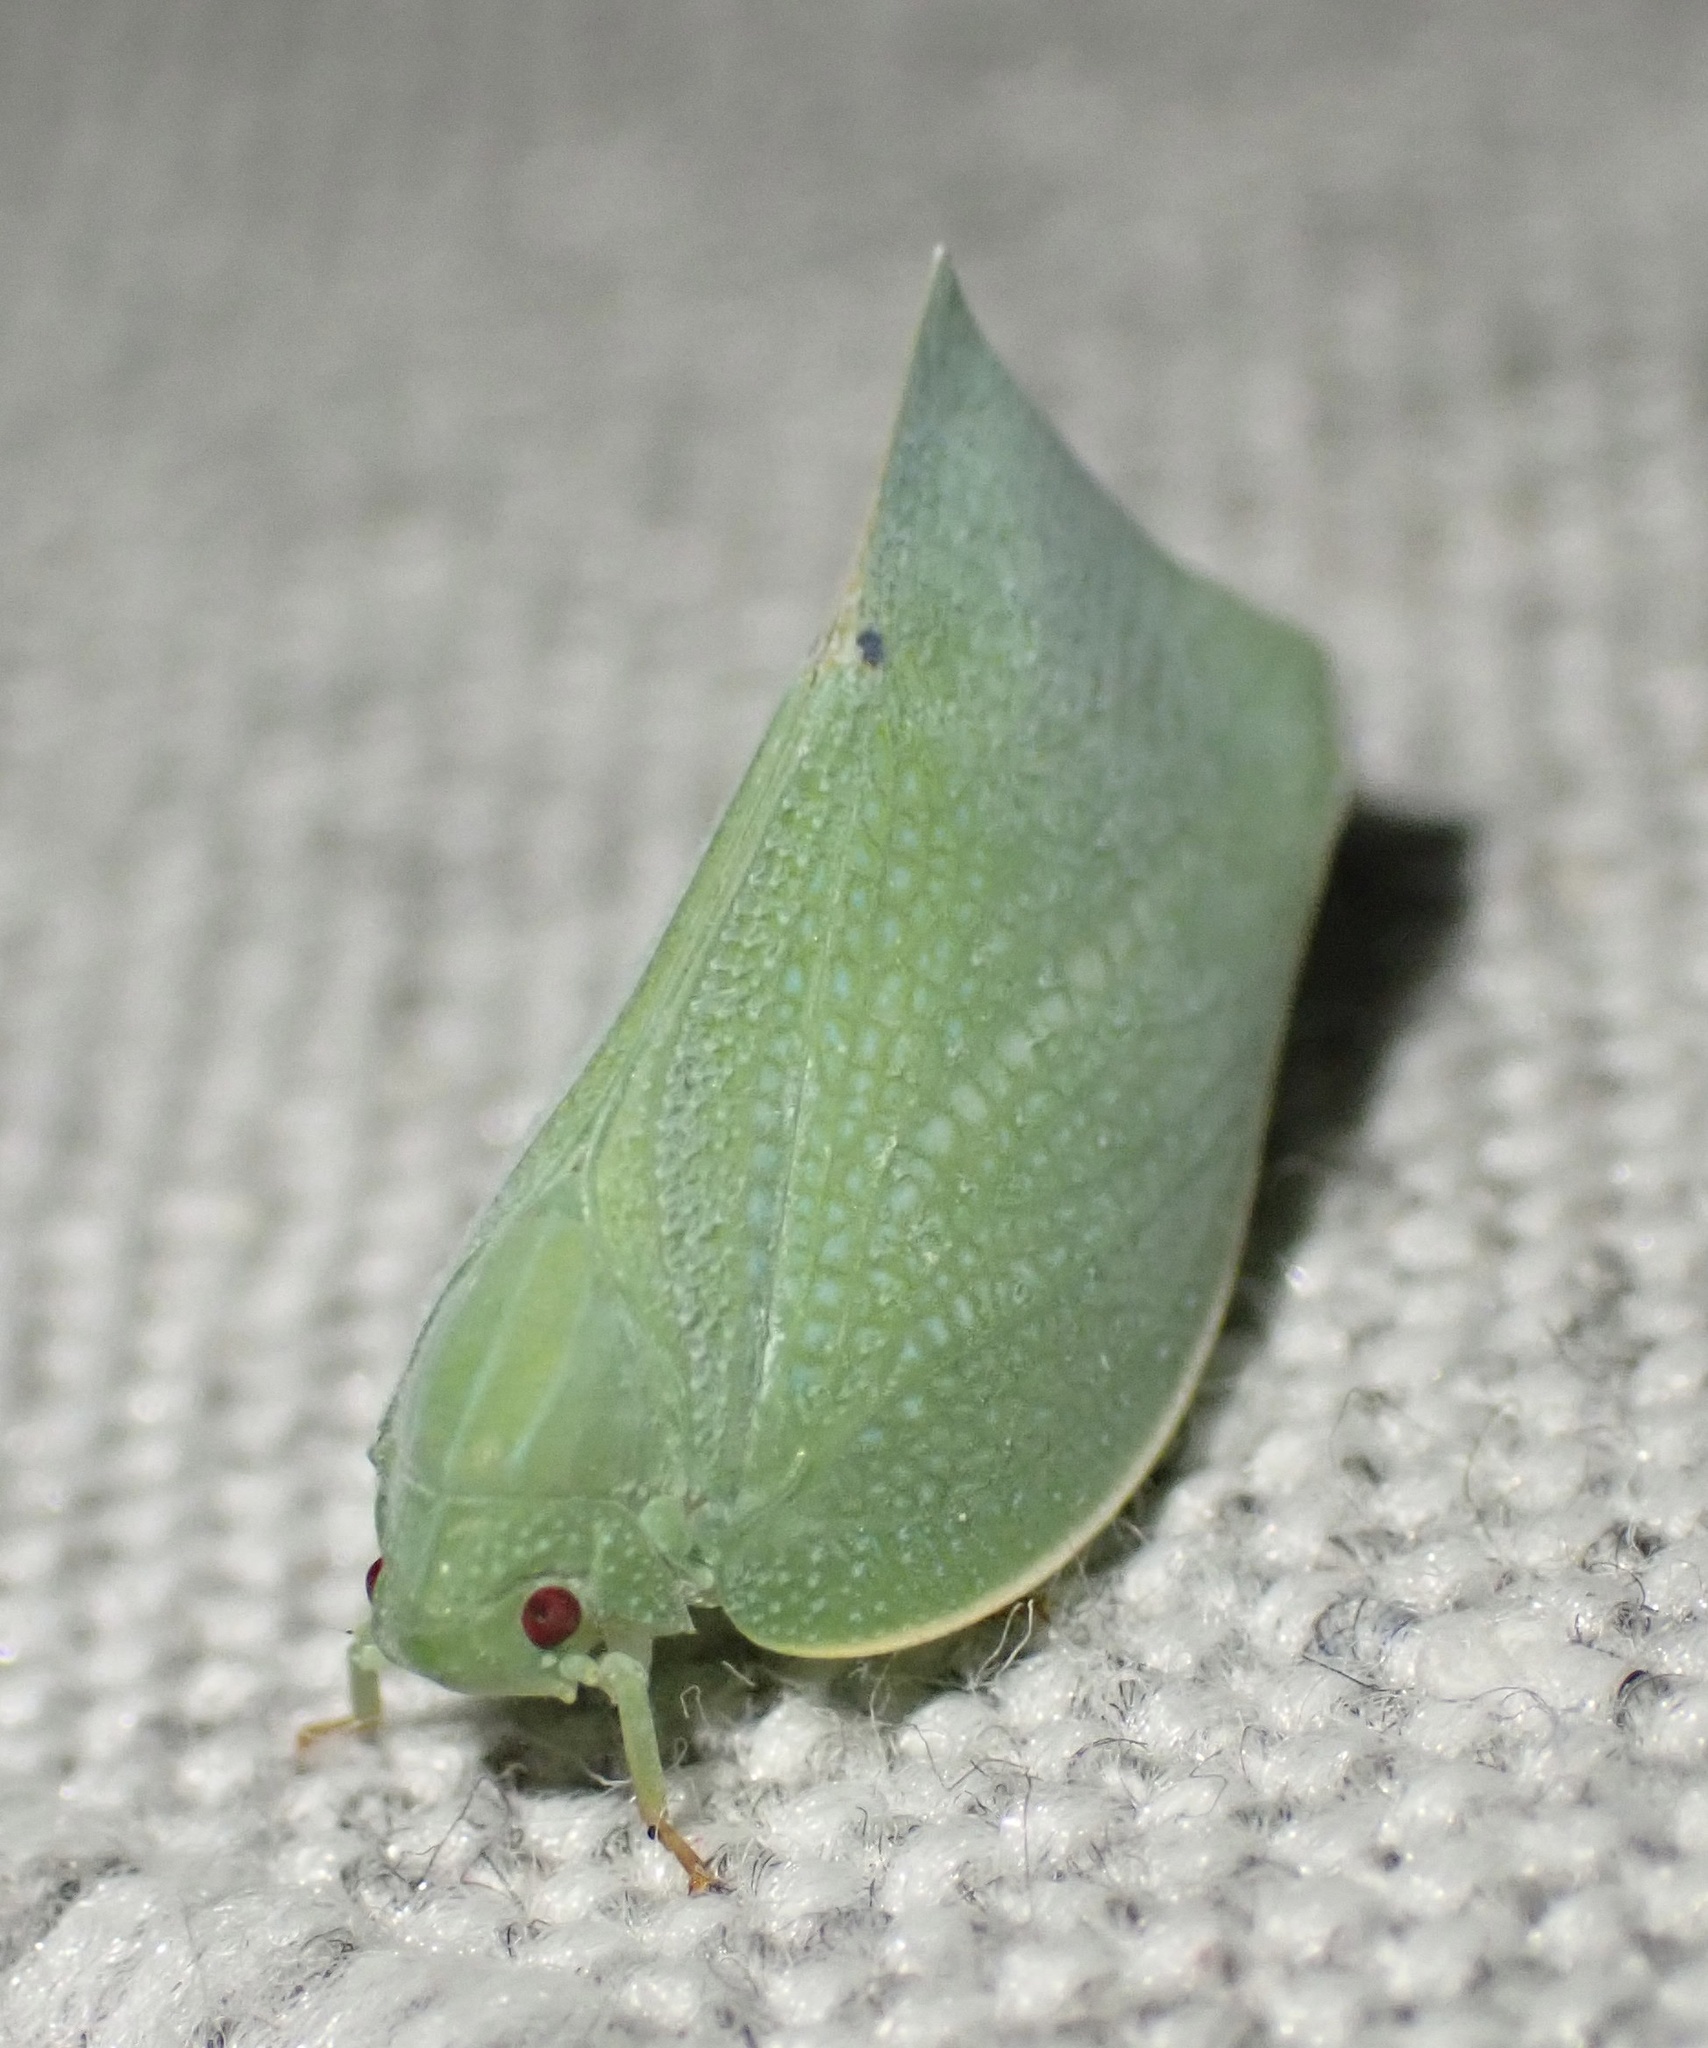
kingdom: Animalia
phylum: Arthropoda
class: Insecta
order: Hemiptera
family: Flatidae
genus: Cryptoflata
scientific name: Cryptoflata unipunctata
